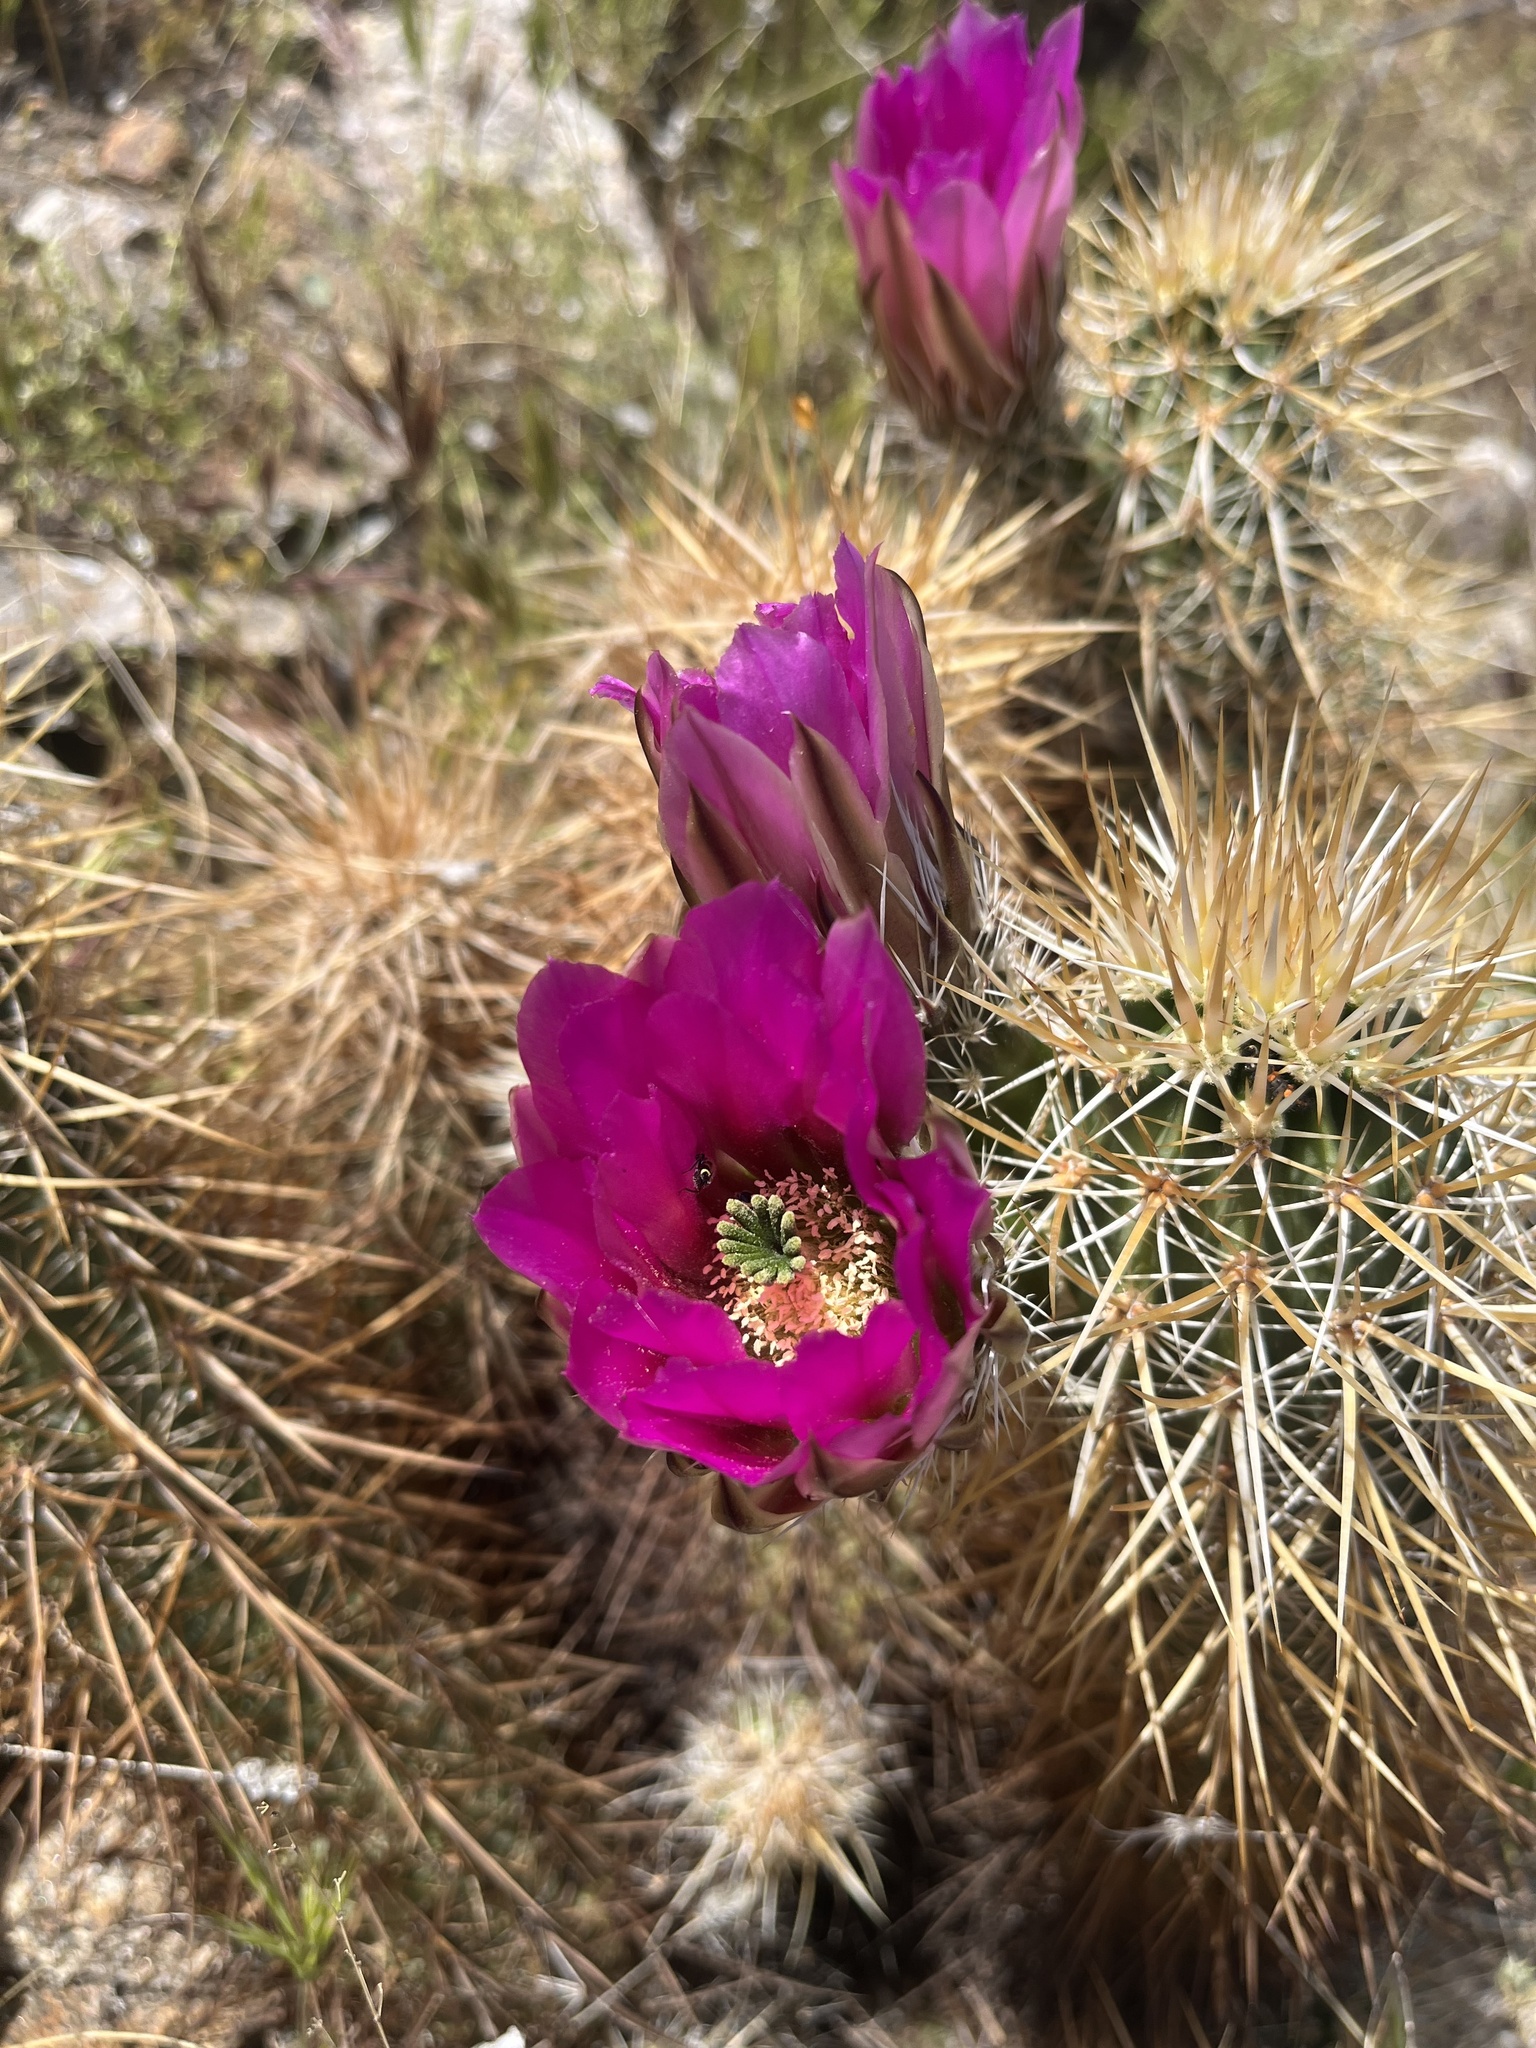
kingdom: Plantae
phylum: Tracheophyta
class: Magnoliopsida
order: Caryophyllales
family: Cactaceae
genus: Echinocereus
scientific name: Echinocereus engelmannii
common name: Engelmann's hedgehog cactus
